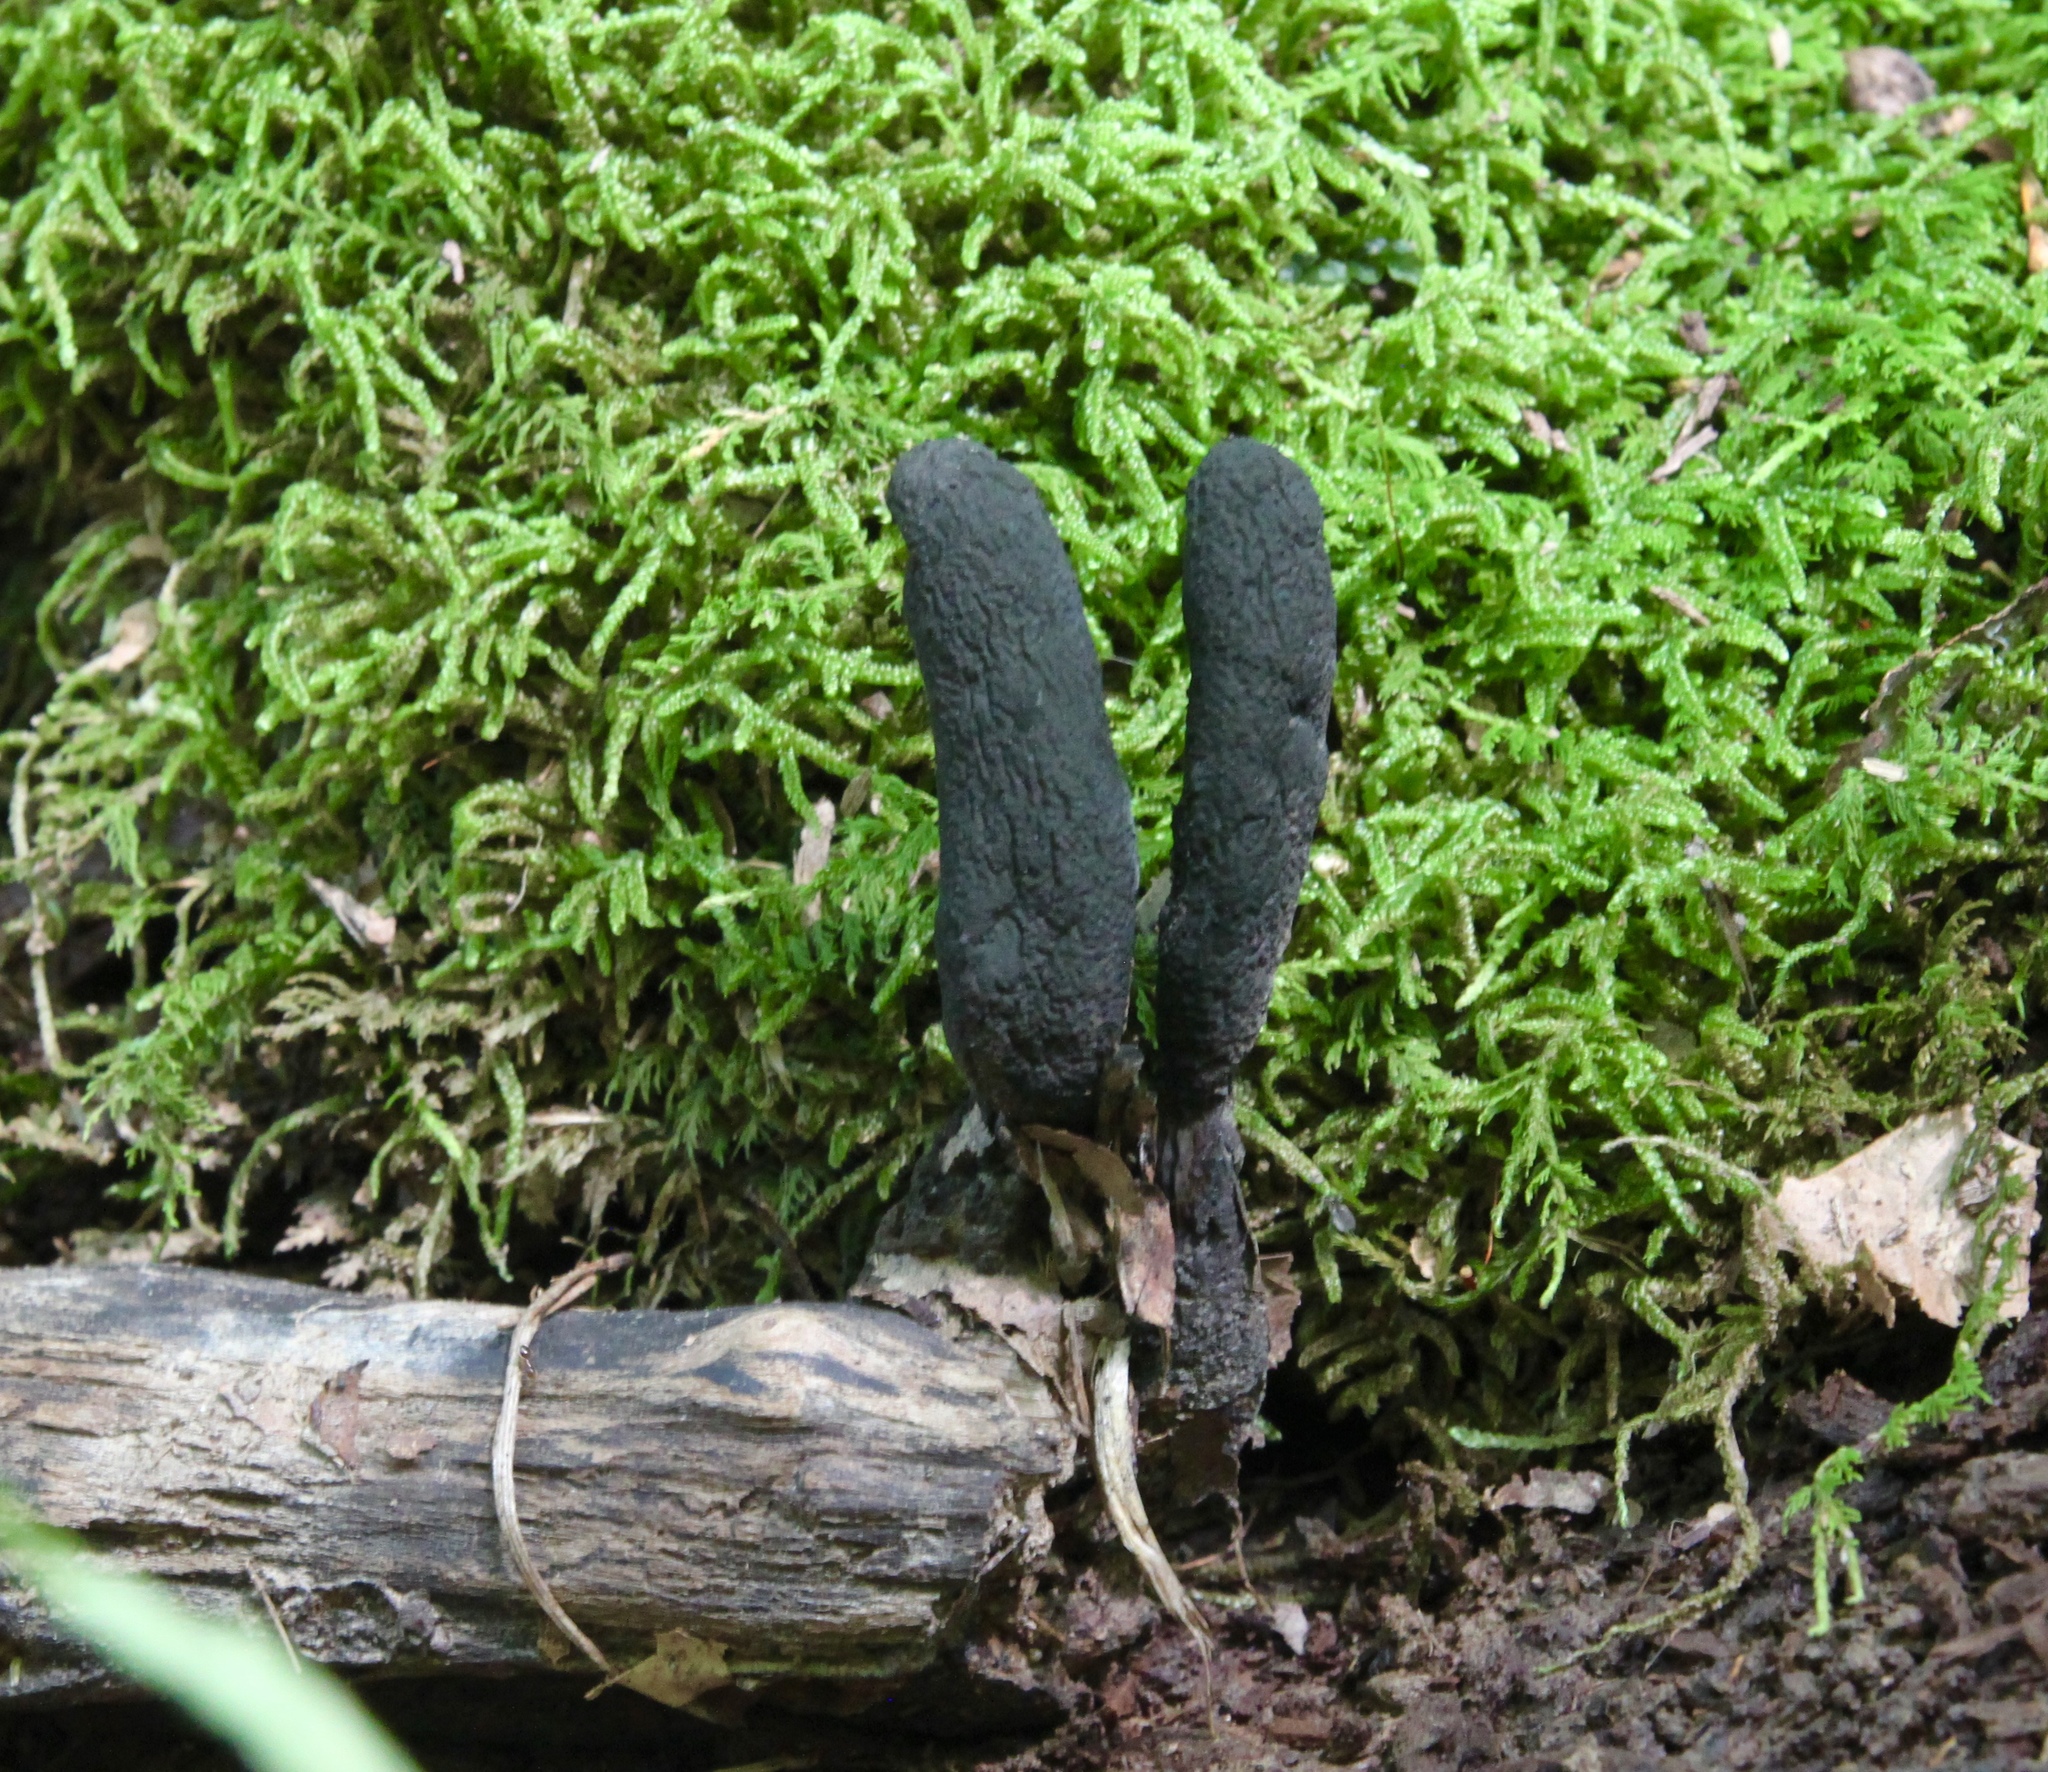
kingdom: Fungi
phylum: Ascomycota
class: Sordariomycetes
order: Xylariales
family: Xylariaceae
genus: Xylaria
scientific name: Xylaria longipes
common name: Dead moll's fingers
